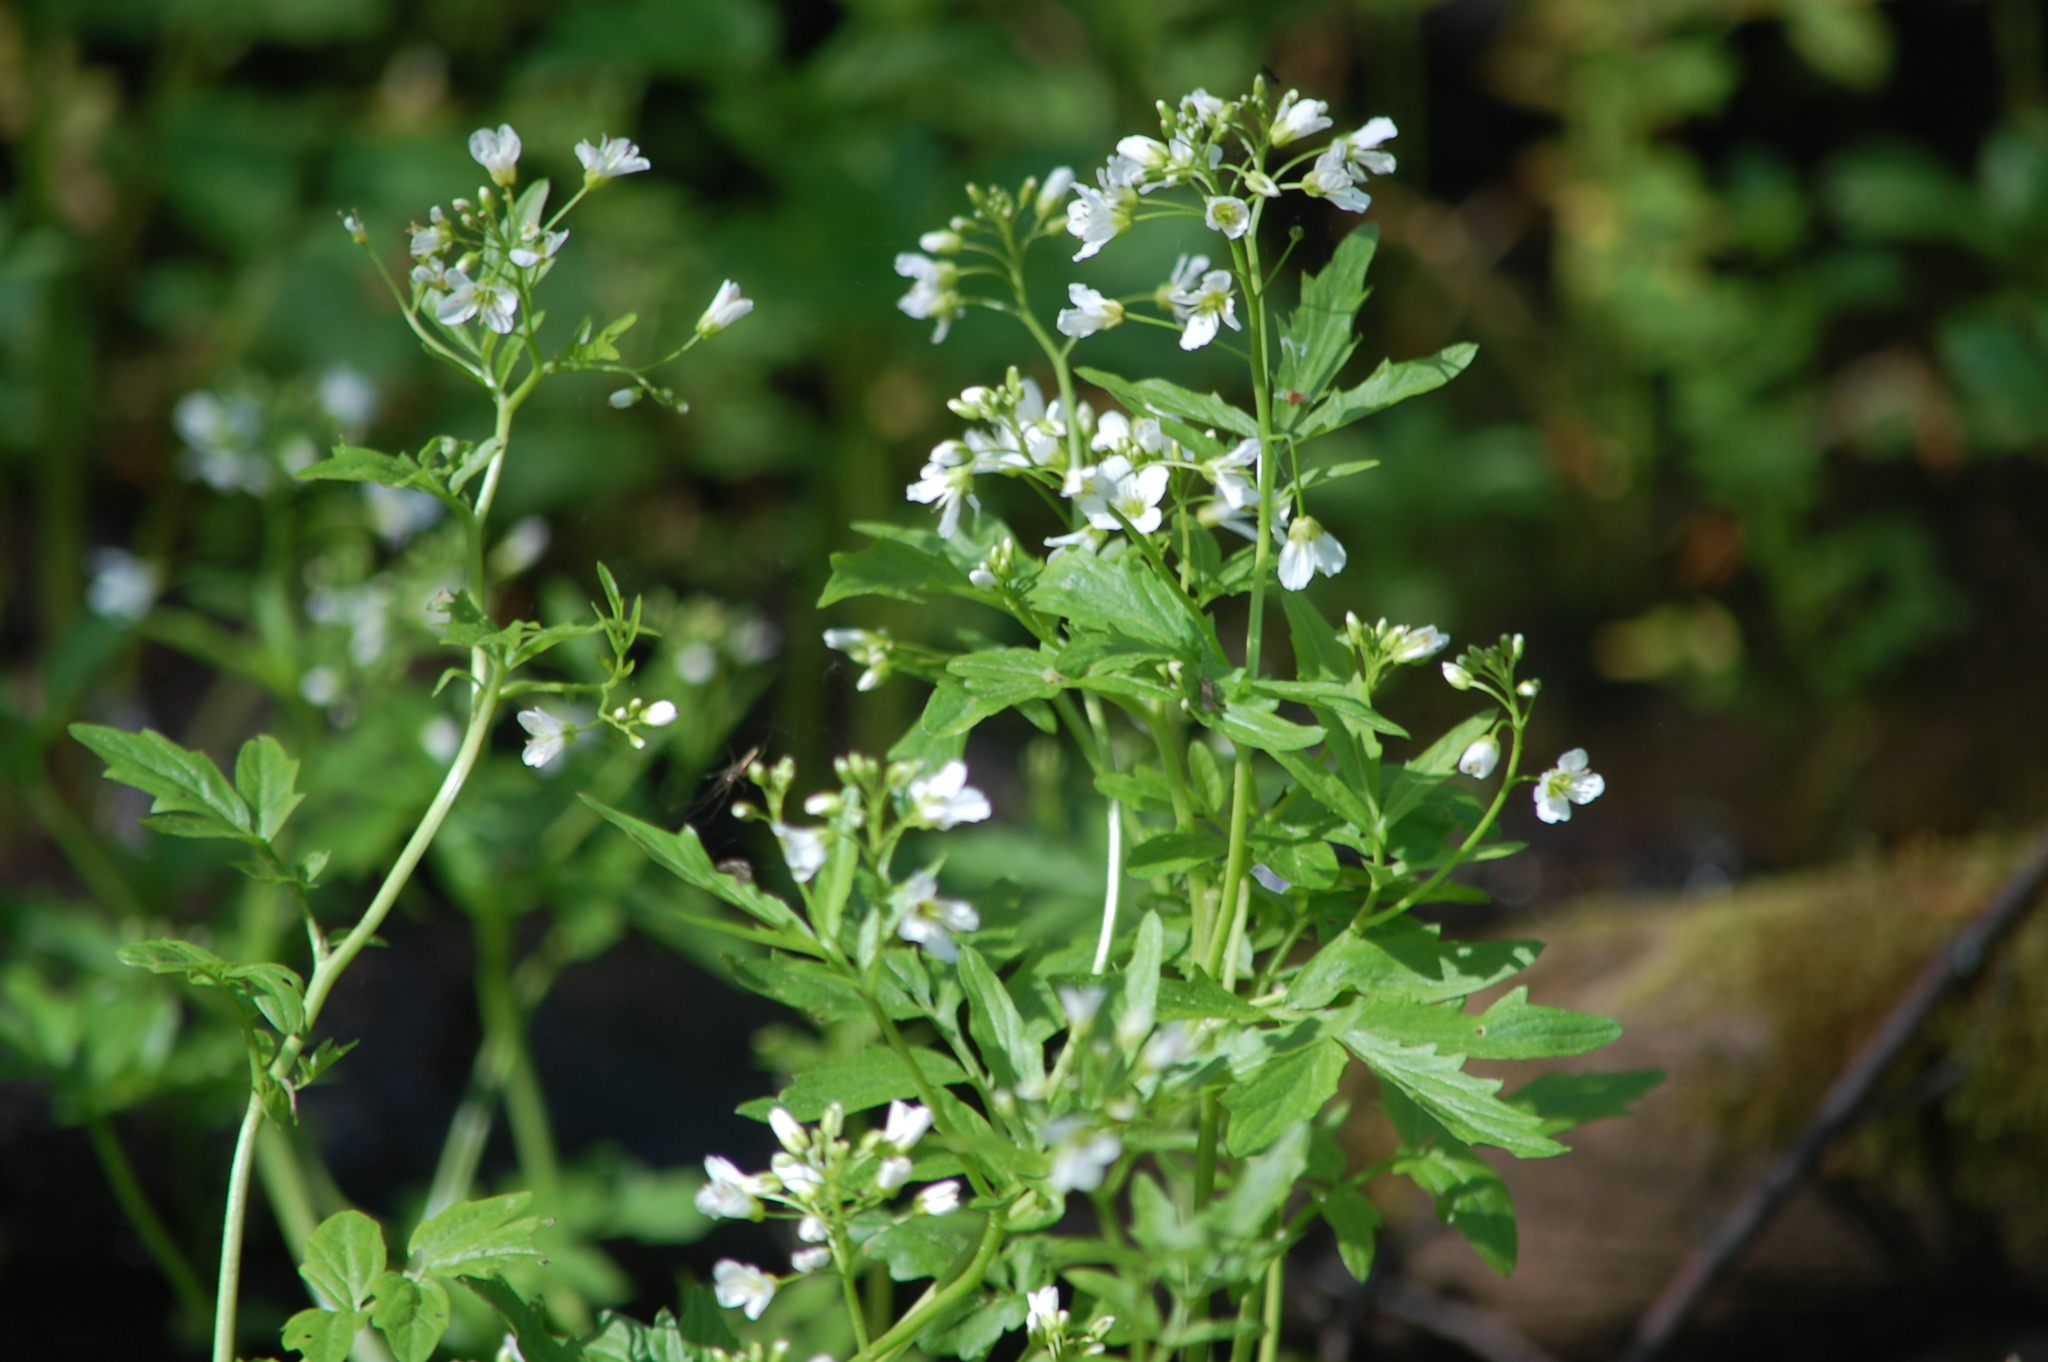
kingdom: Plantae
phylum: Tracheophyta
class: Magnoliopsida
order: Brassicales
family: Brassicaceae
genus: Cardamine
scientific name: Cardamine amara
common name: Large bitter-cress
